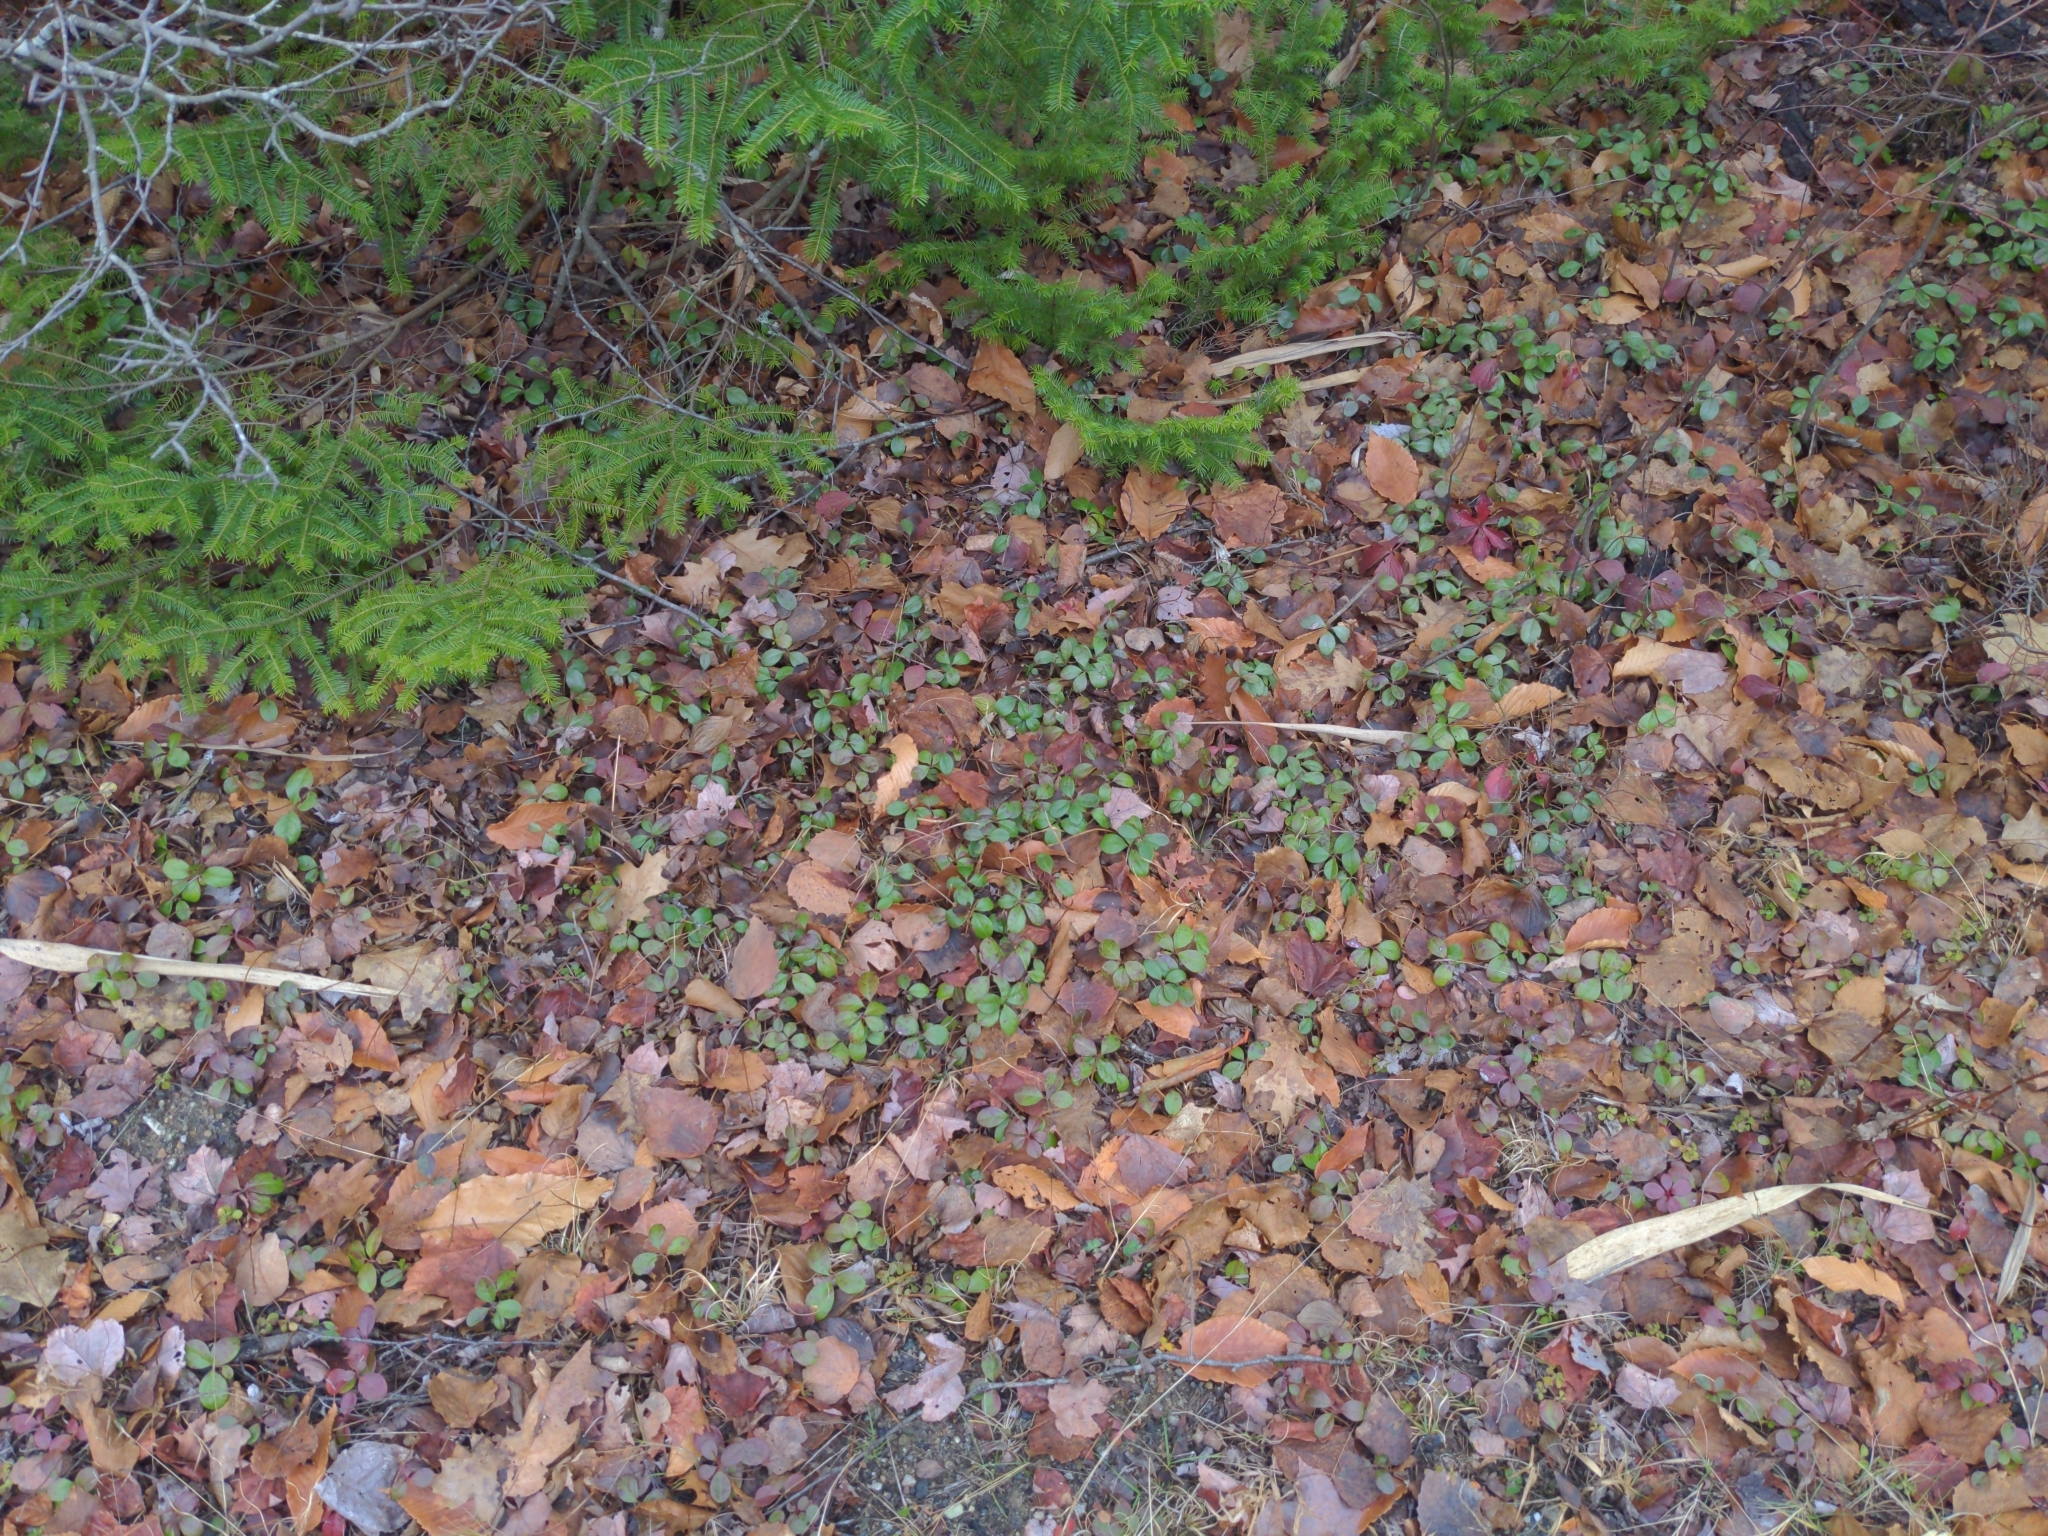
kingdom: Plantae
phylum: Tracheophyta
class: Magnoliopsida
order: Ericales
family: Ericaceae
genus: Gaultheria
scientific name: Gaultheria procumbens
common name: Checkerberry
